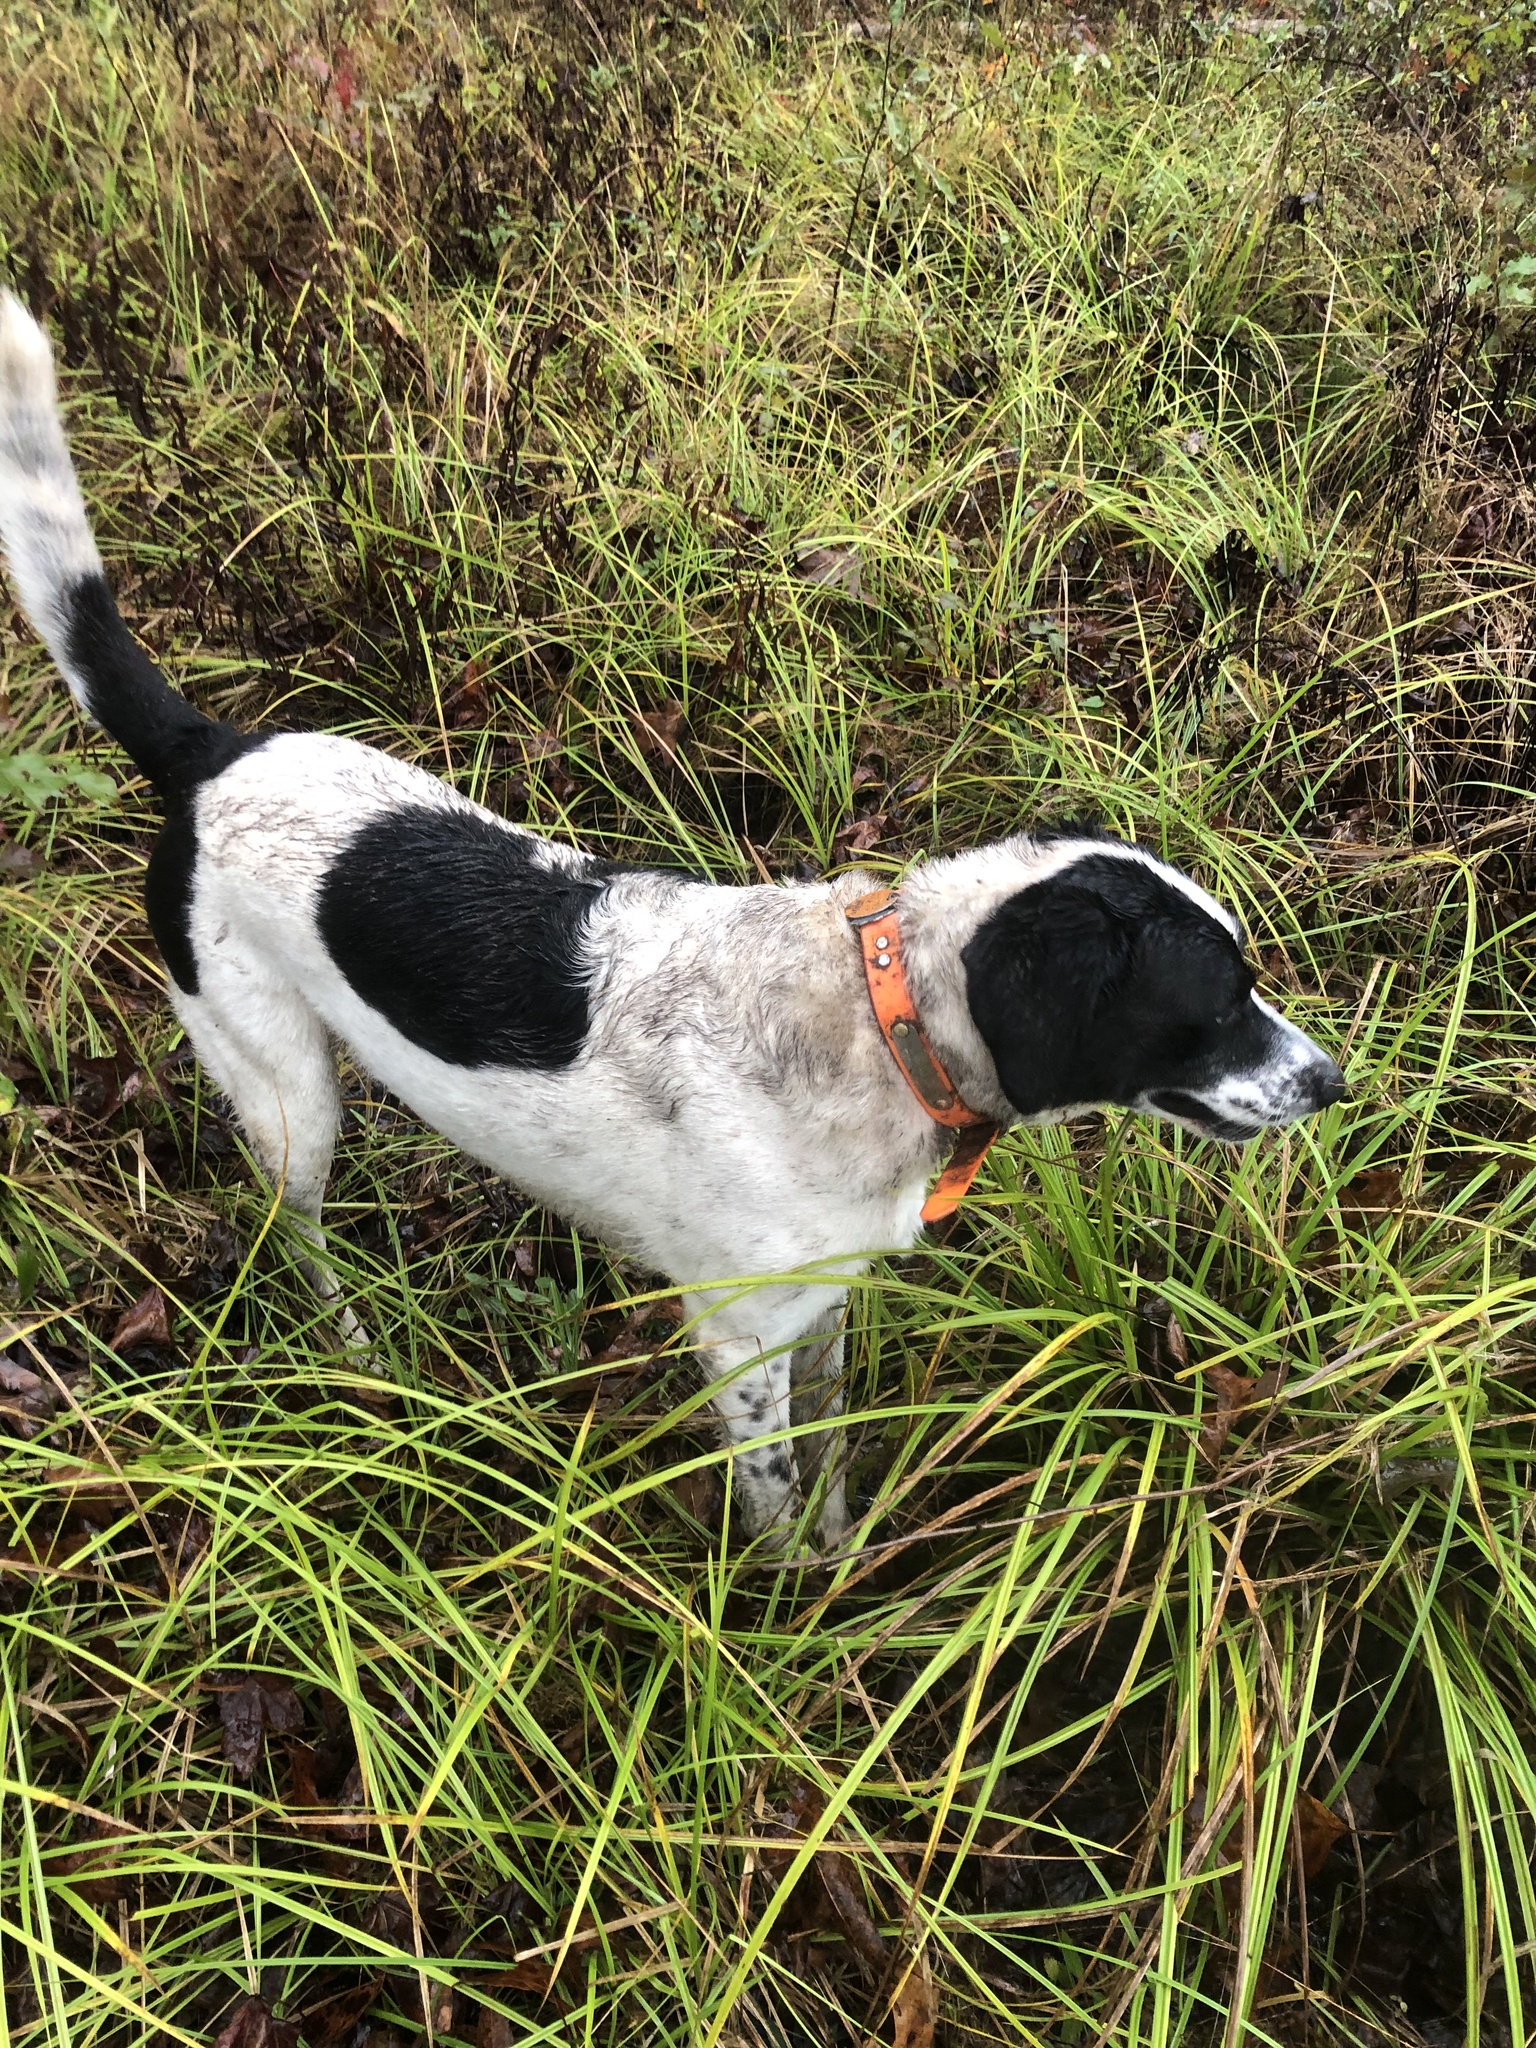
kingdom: Plantae
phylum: Tracheophyta
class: Liliopsida
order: Poales
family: Cyperaceae
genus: Carex
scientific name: Carex stipata
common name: Awl-fruited sedge
